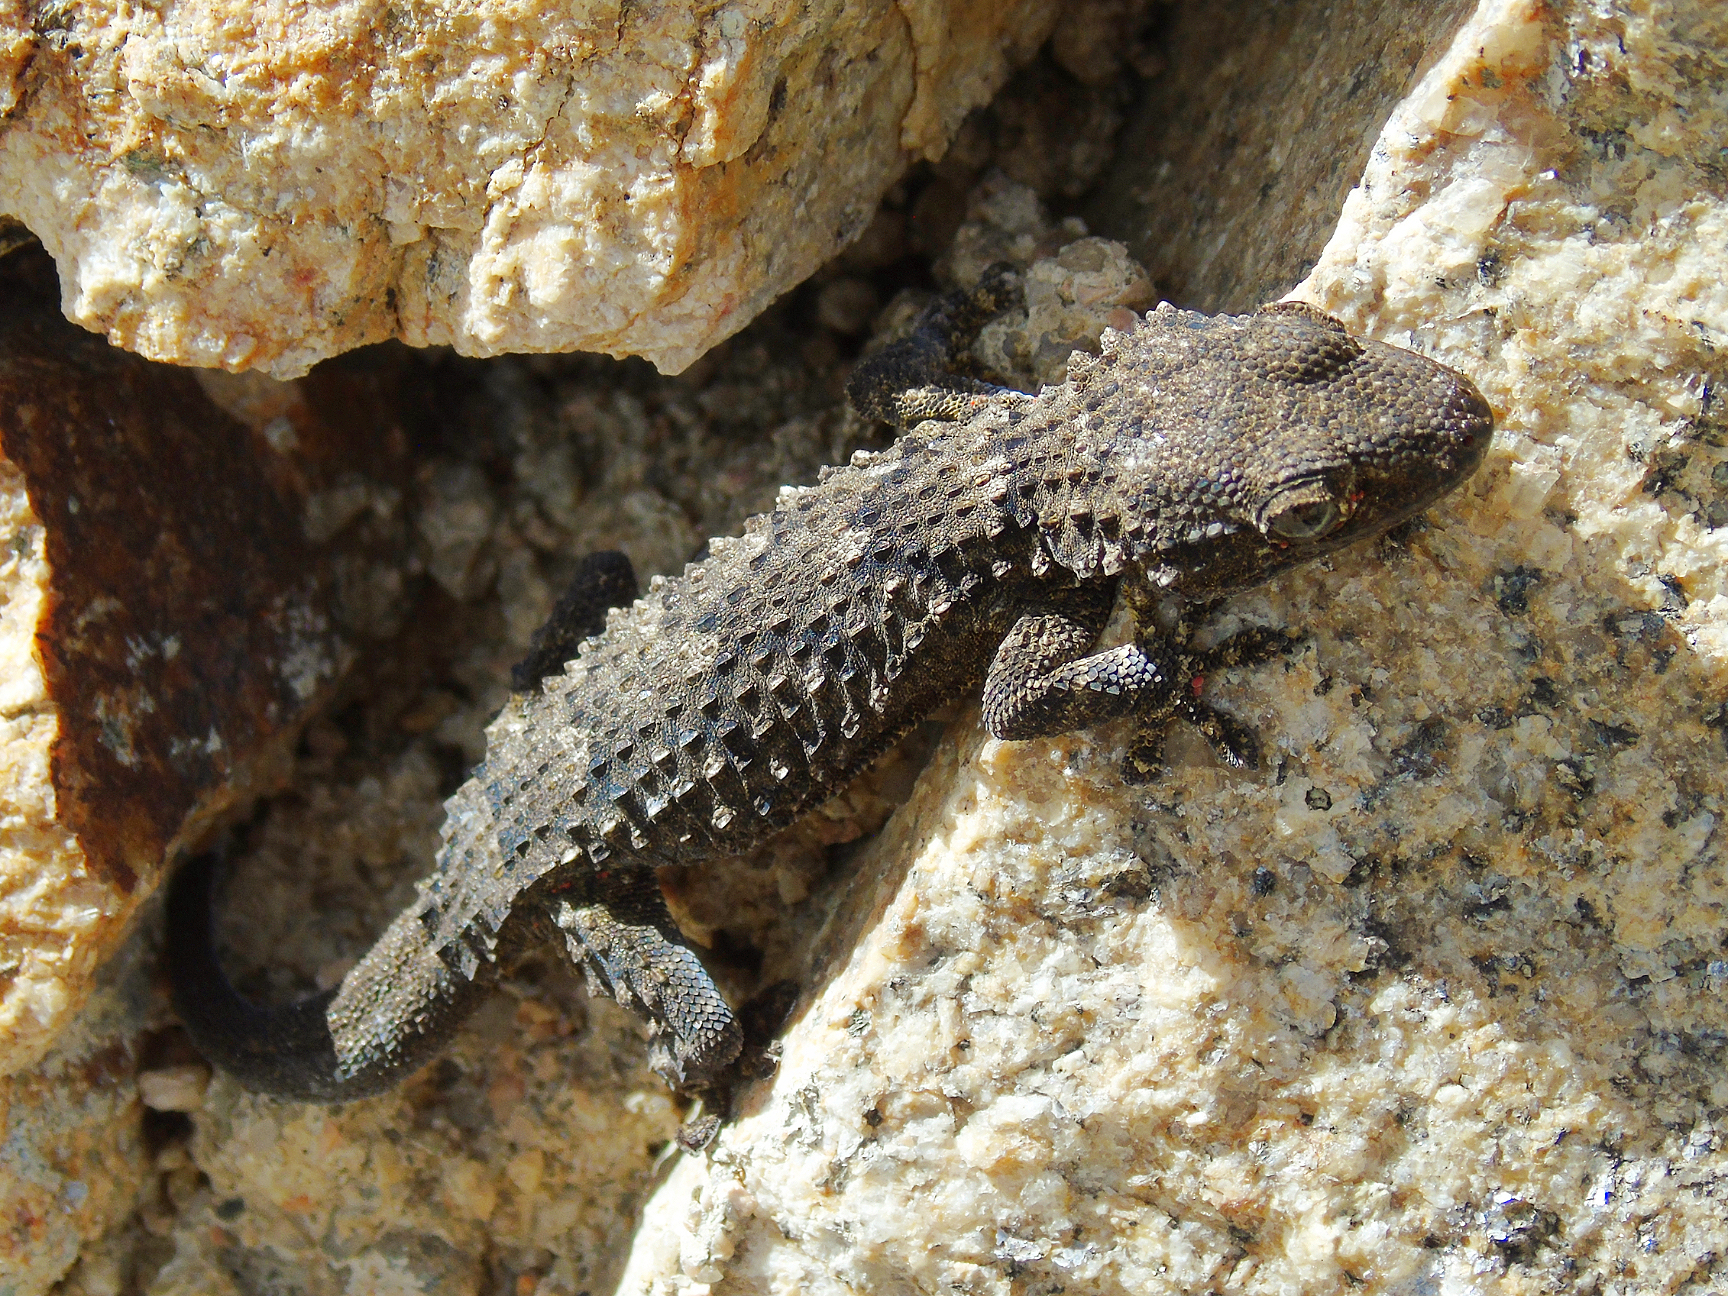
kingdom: Animalia
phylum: Chordata
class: Squamata
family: Phyllodactylidae
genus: Tarentola
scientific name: Tarentola mauritanica
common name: Moorish gecko
